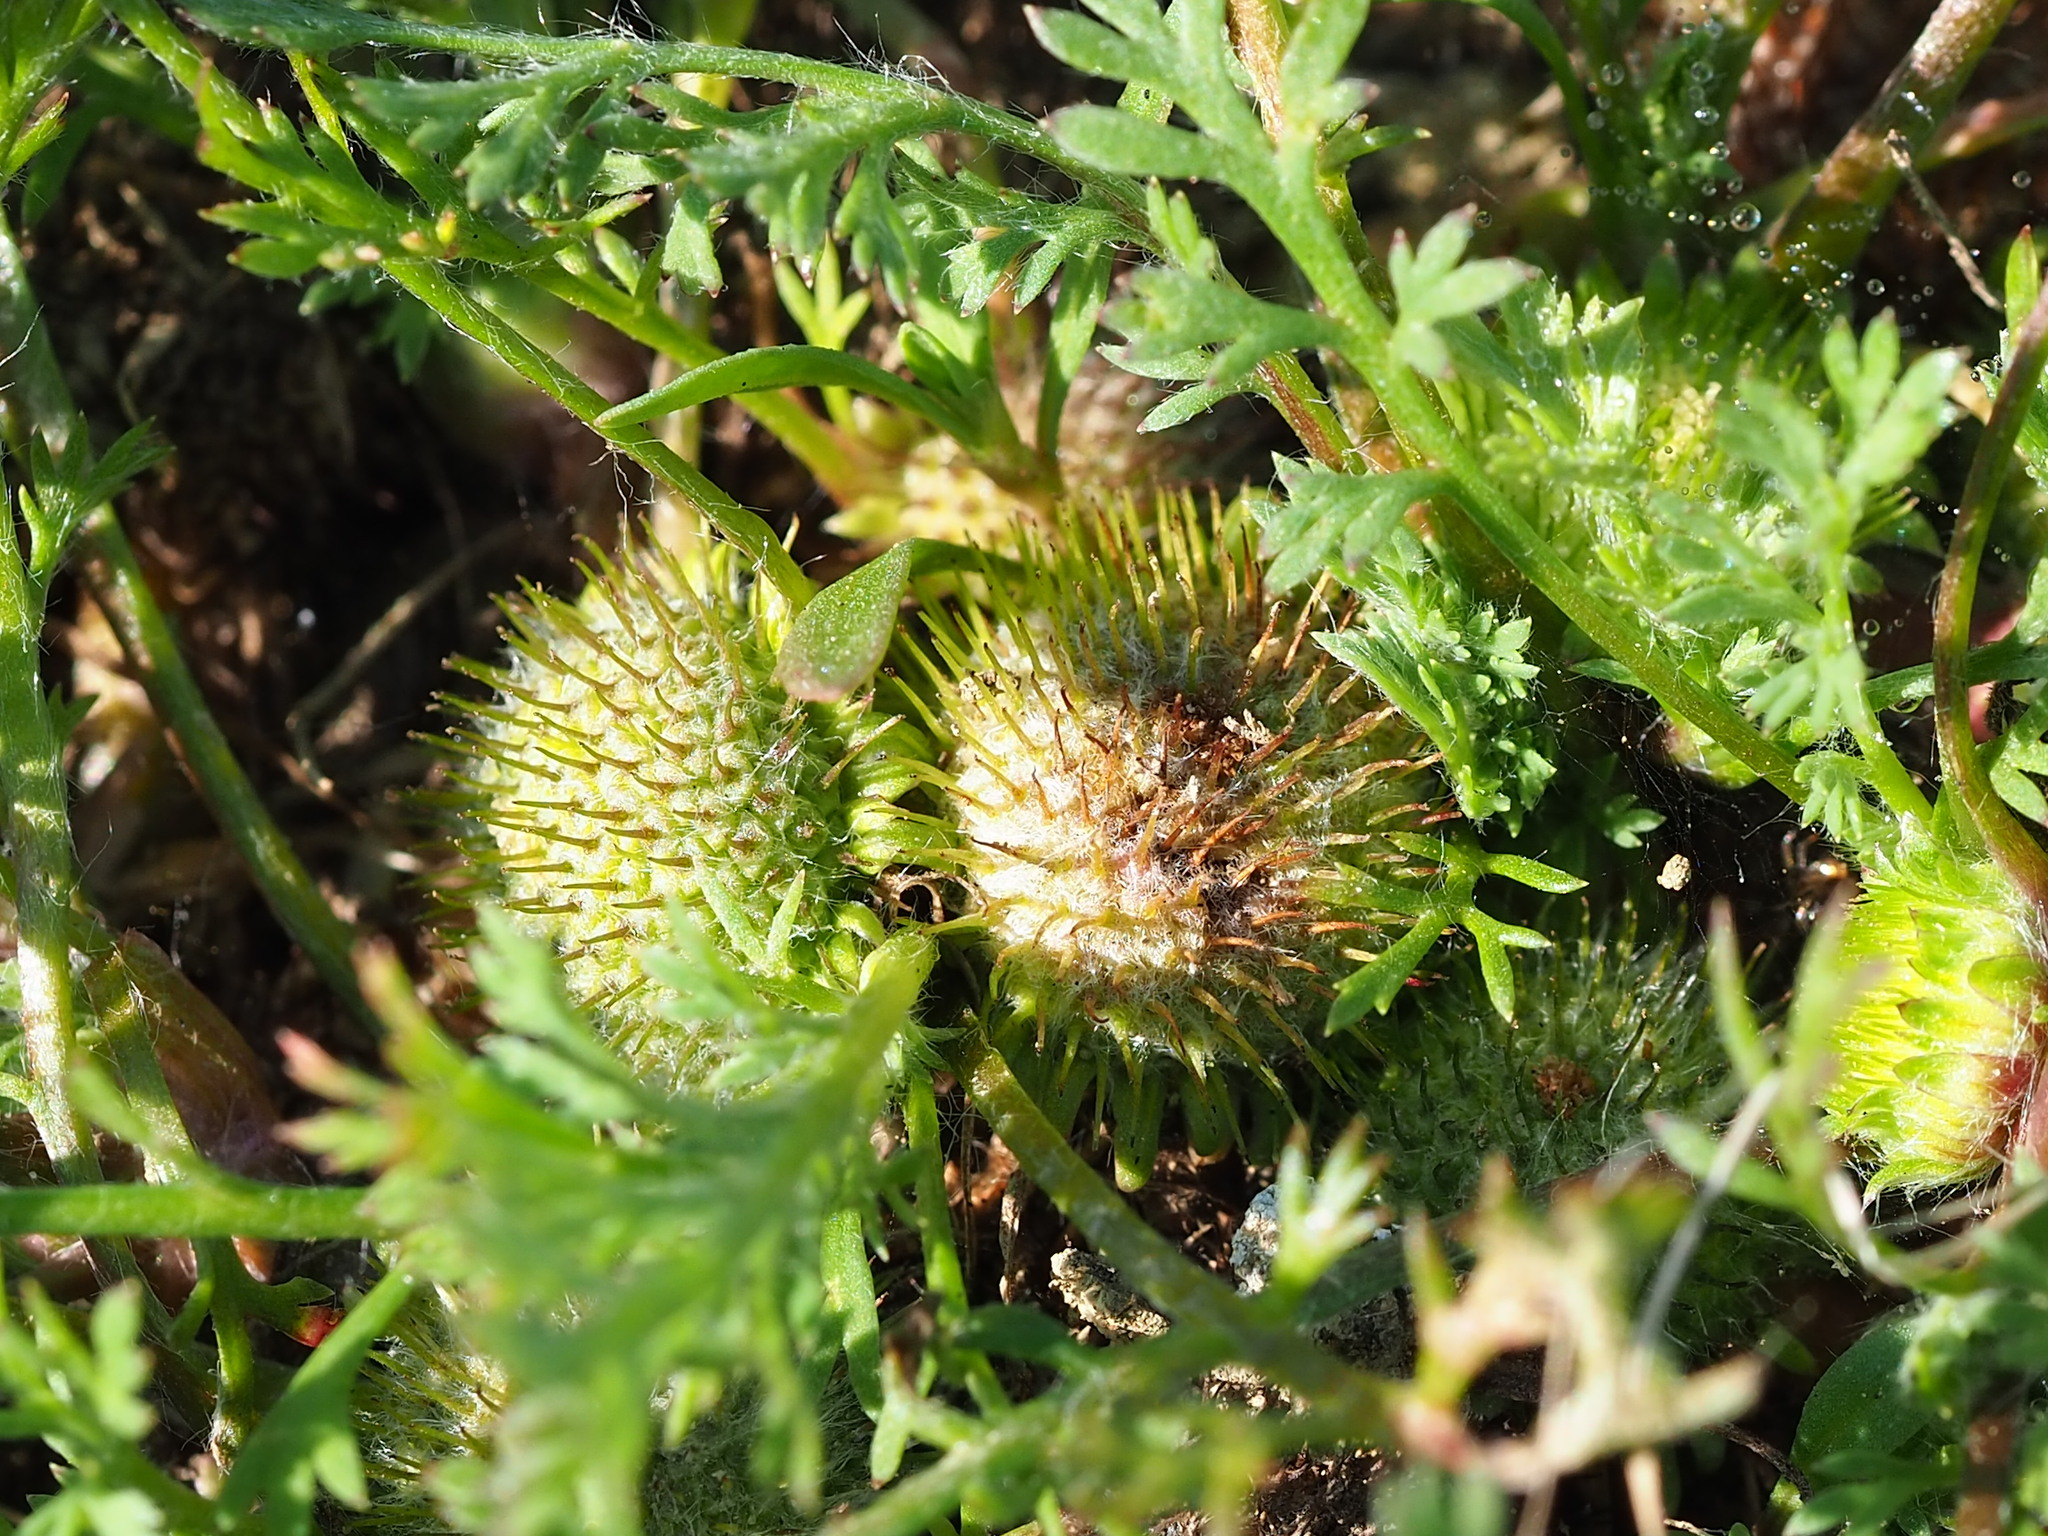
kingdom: Plantae
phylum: Tracheophyta
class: Magnoliopsida
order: Asterales
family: Asteraceae
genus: Soliva
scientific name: Soliva anthemifolia
